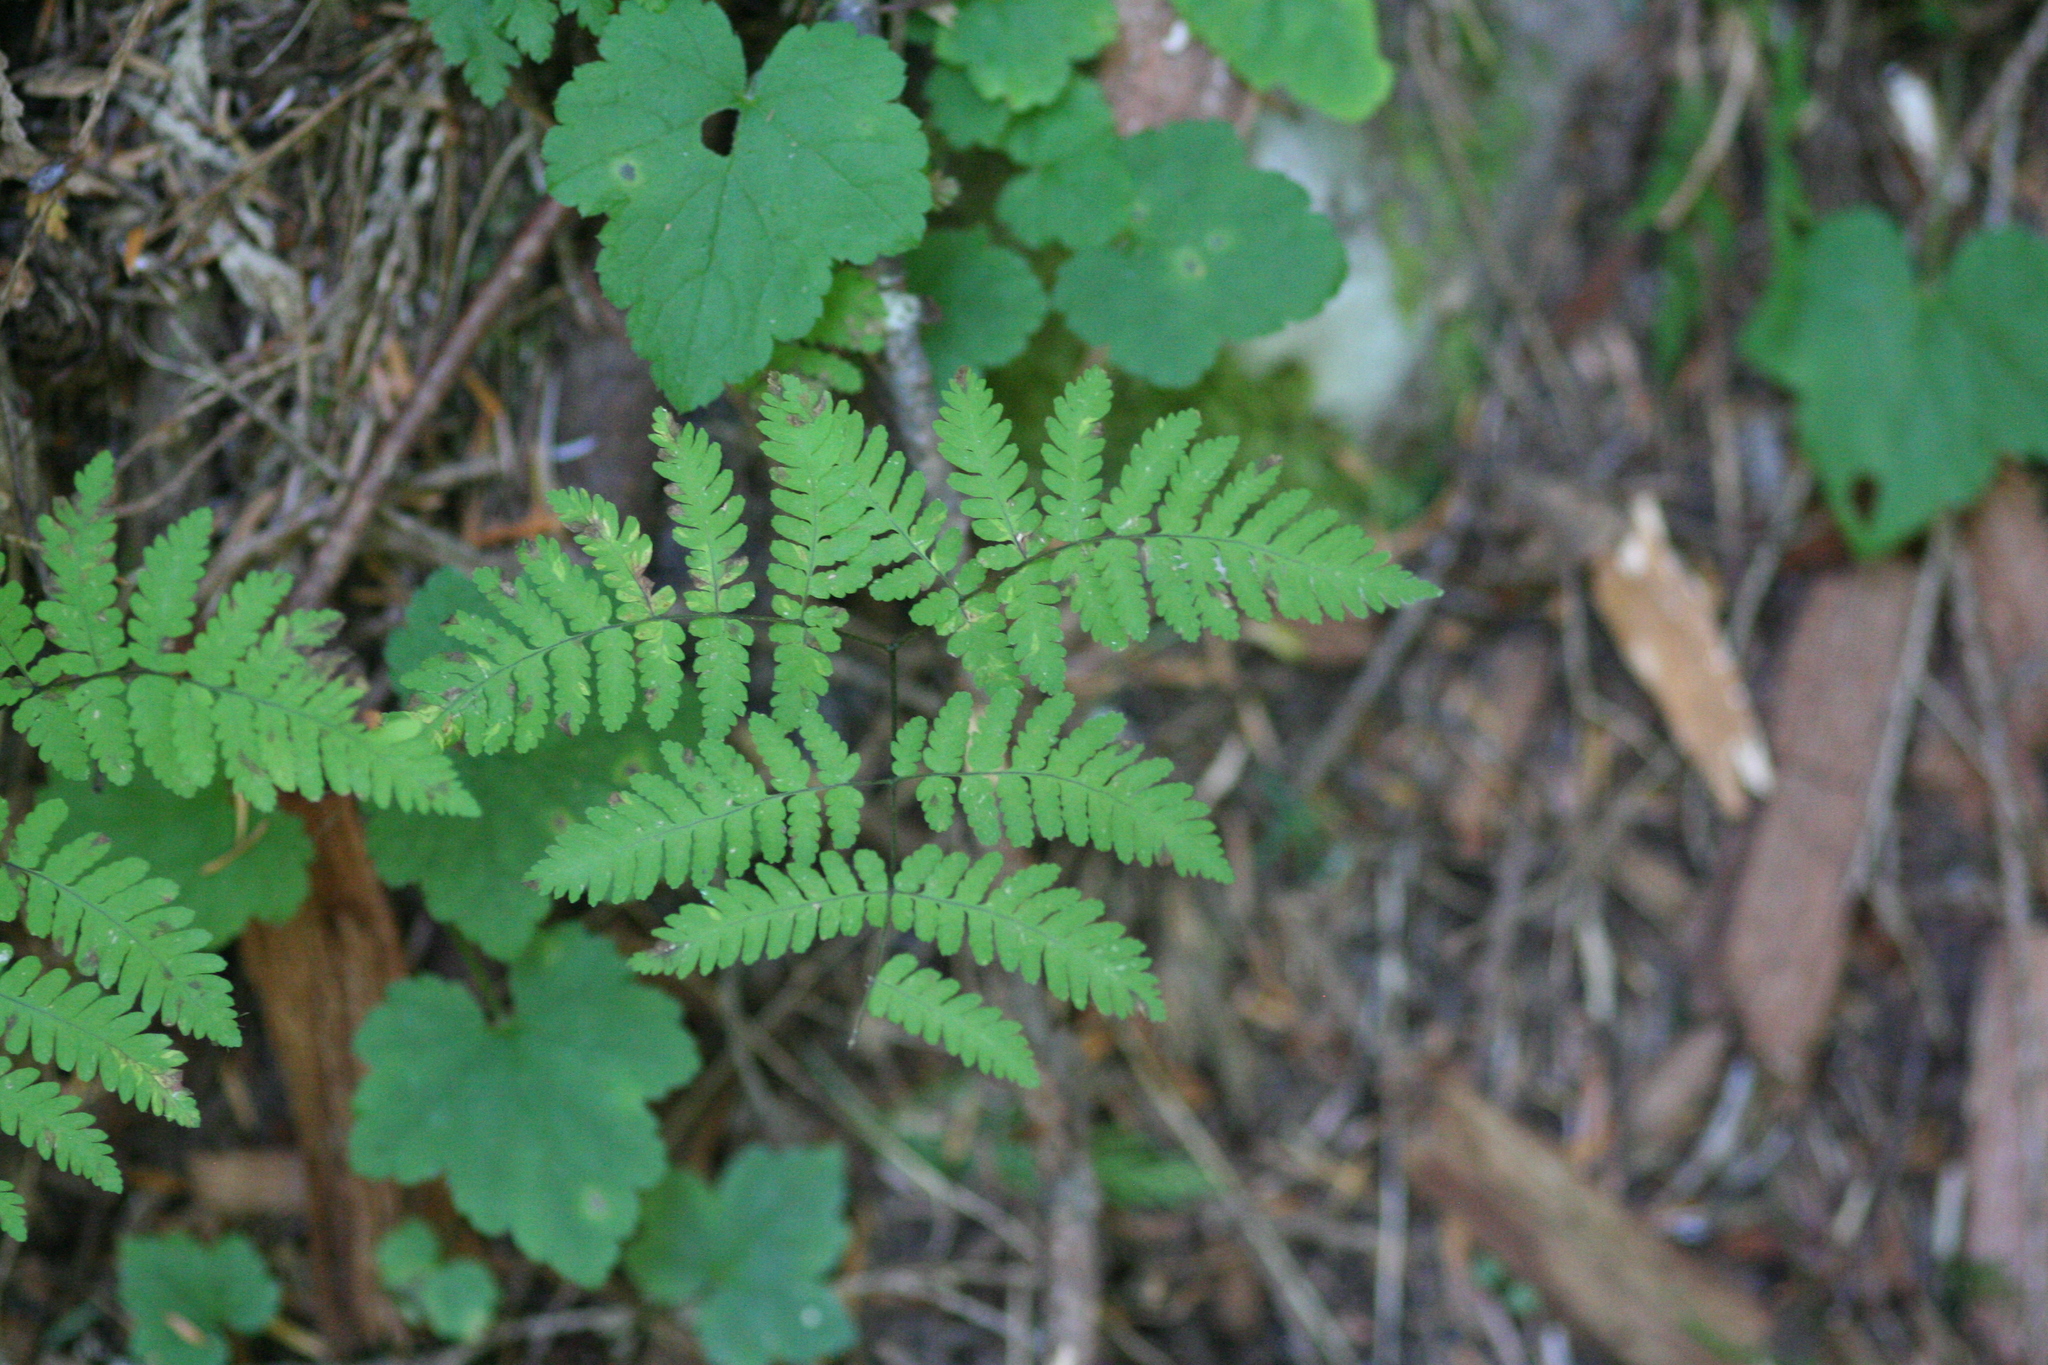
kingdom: Plantae
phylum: Tracheophyta
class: Polypodiopsida
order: Polypodiales
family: Cystopteridaceae
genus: Gymnocarpium
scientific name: Gymnocarpium disjunctum
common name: Western oak fern
